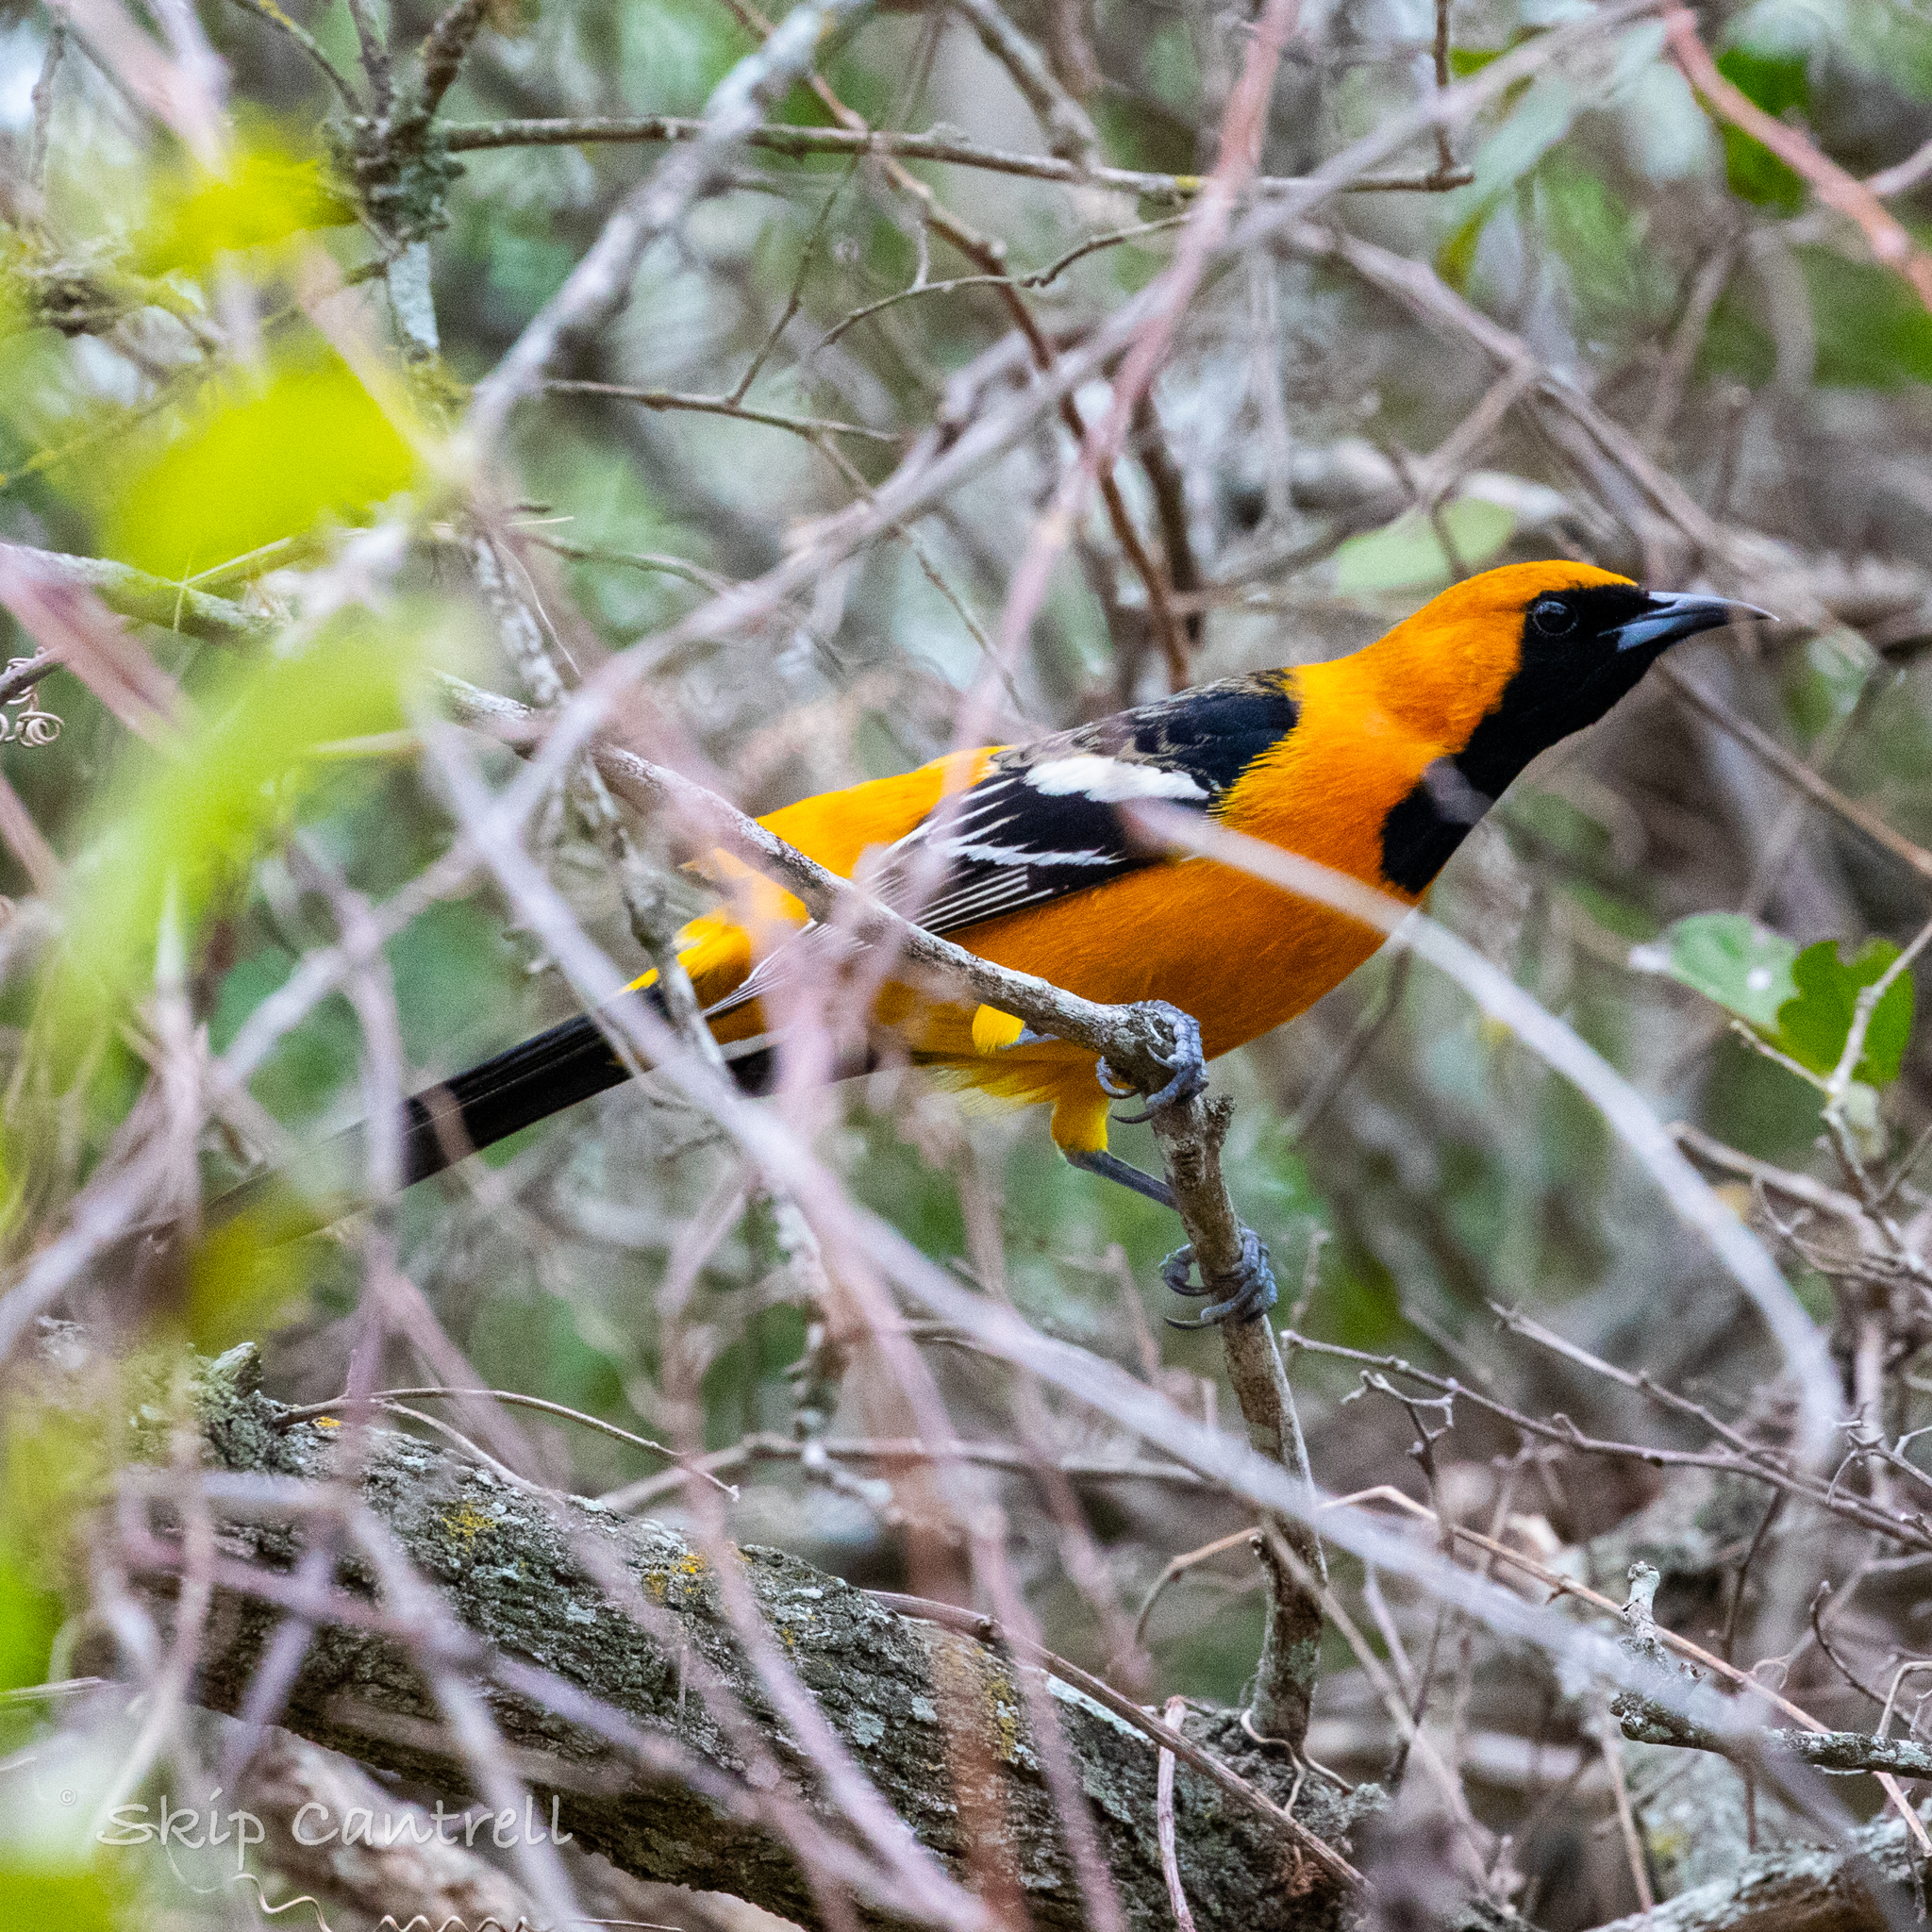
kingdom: Animalia
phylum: Chordata
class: Aves
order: Passeriformes
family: Icteridae
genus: Icterus
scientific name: Icterus cucullatus
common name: Hooded oriole
